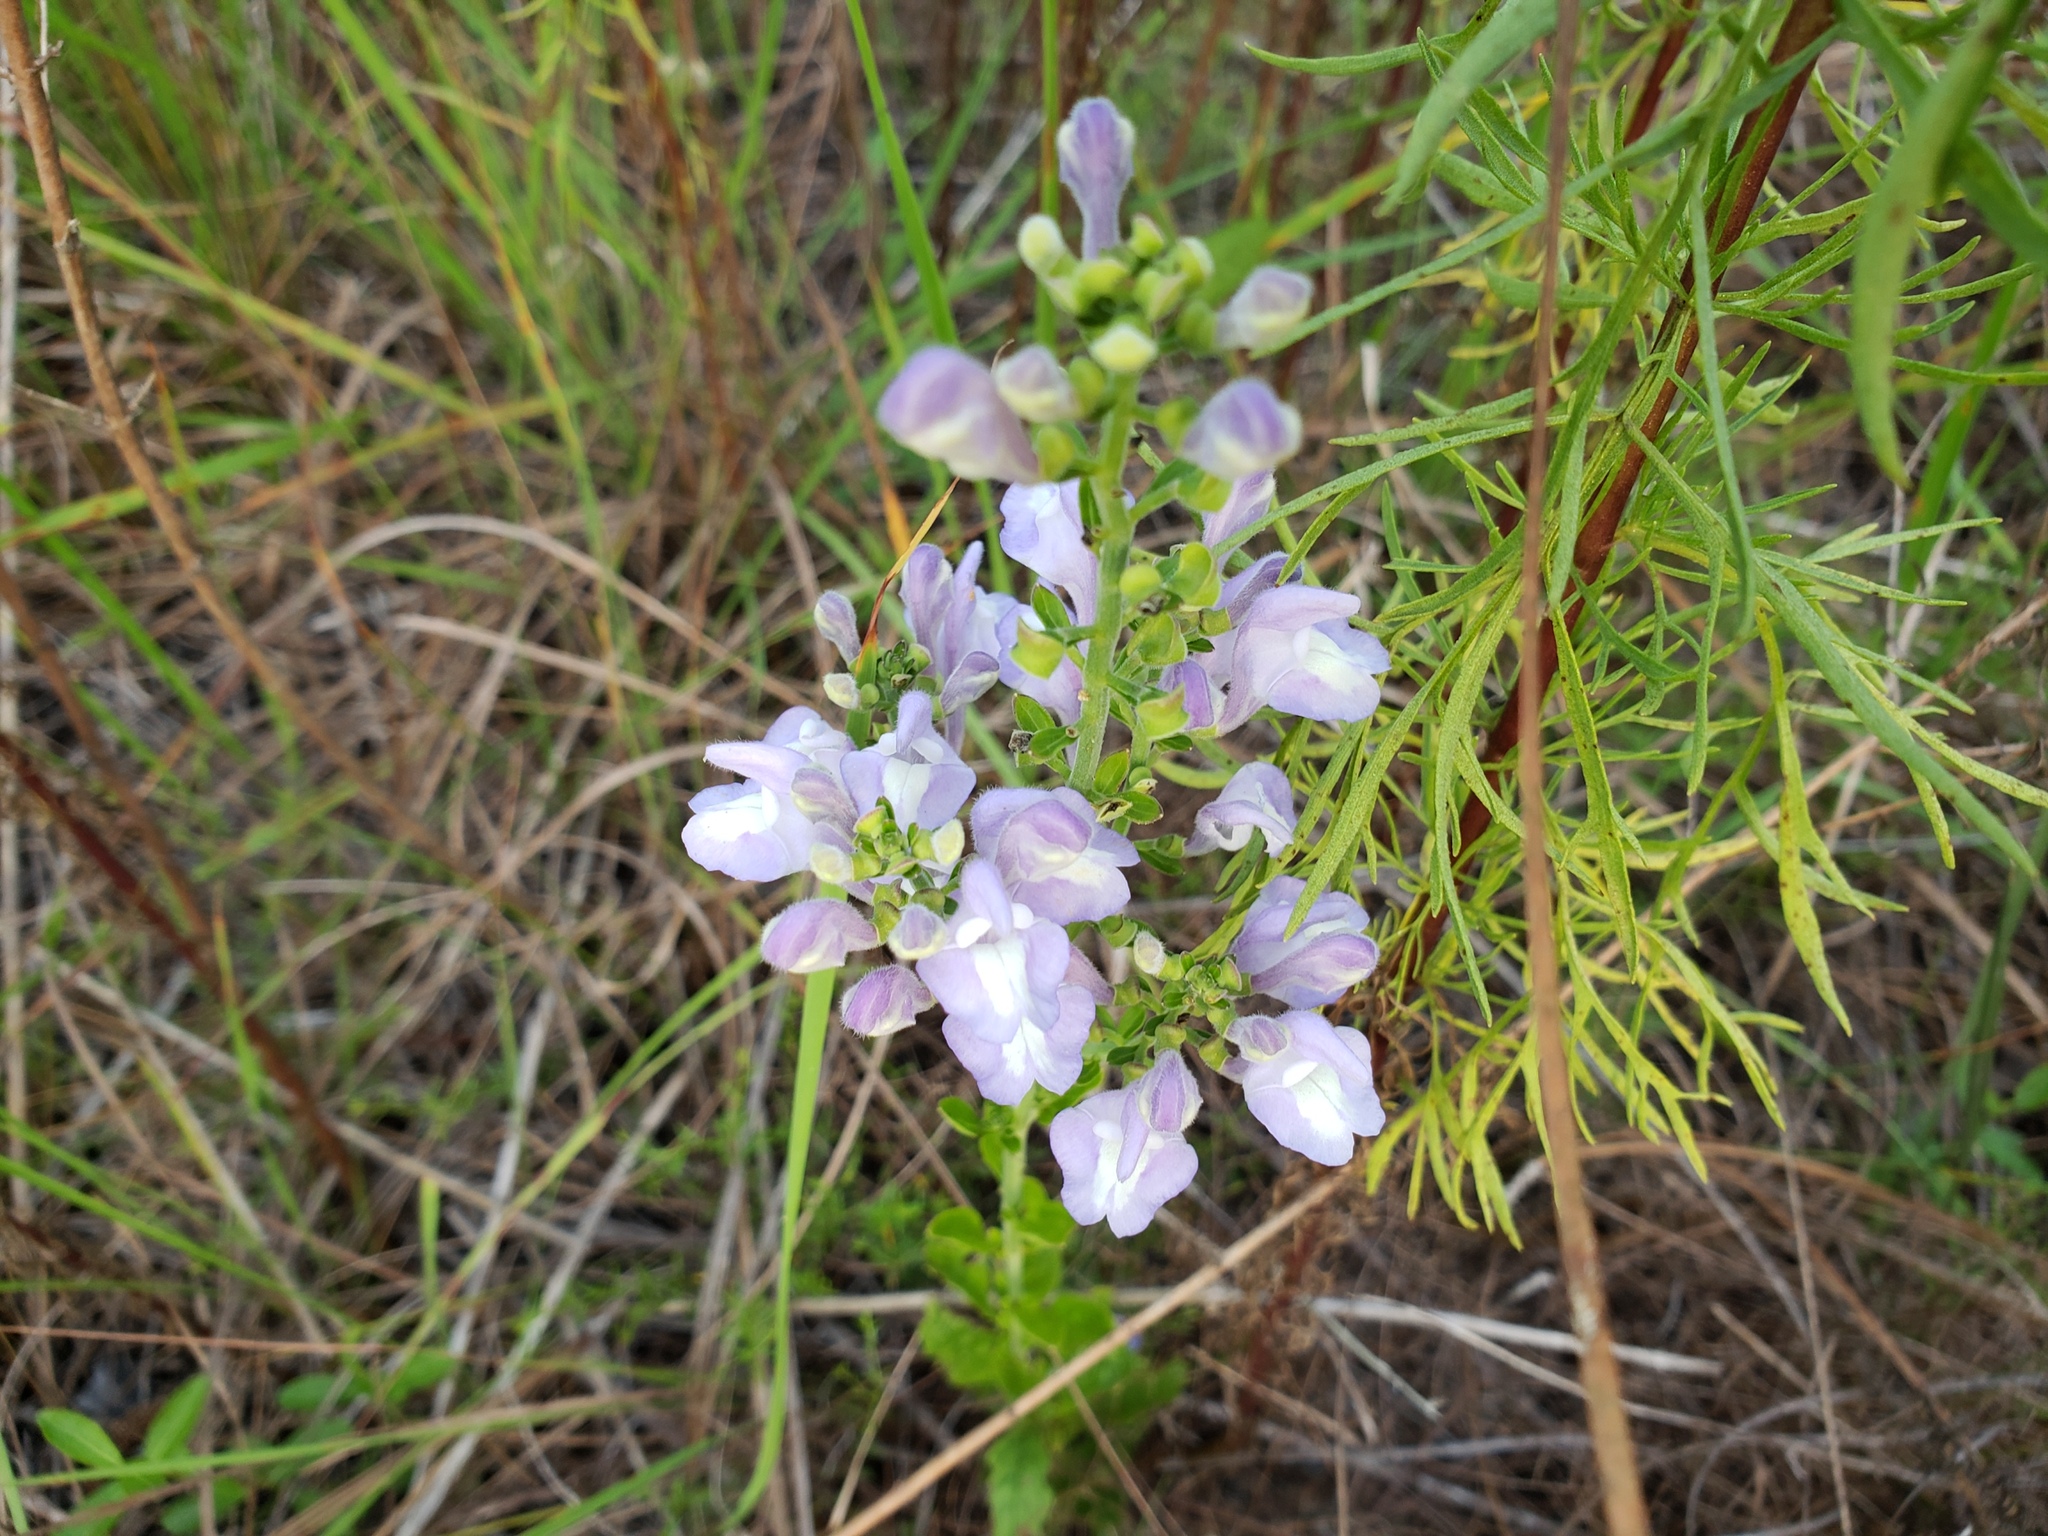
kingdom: Plantae
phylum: Tracheophyta
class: Magnoliopsida
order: Lamiales
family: Lamiaceae
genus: Scutellaria
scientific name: Scutellaria arenicola
